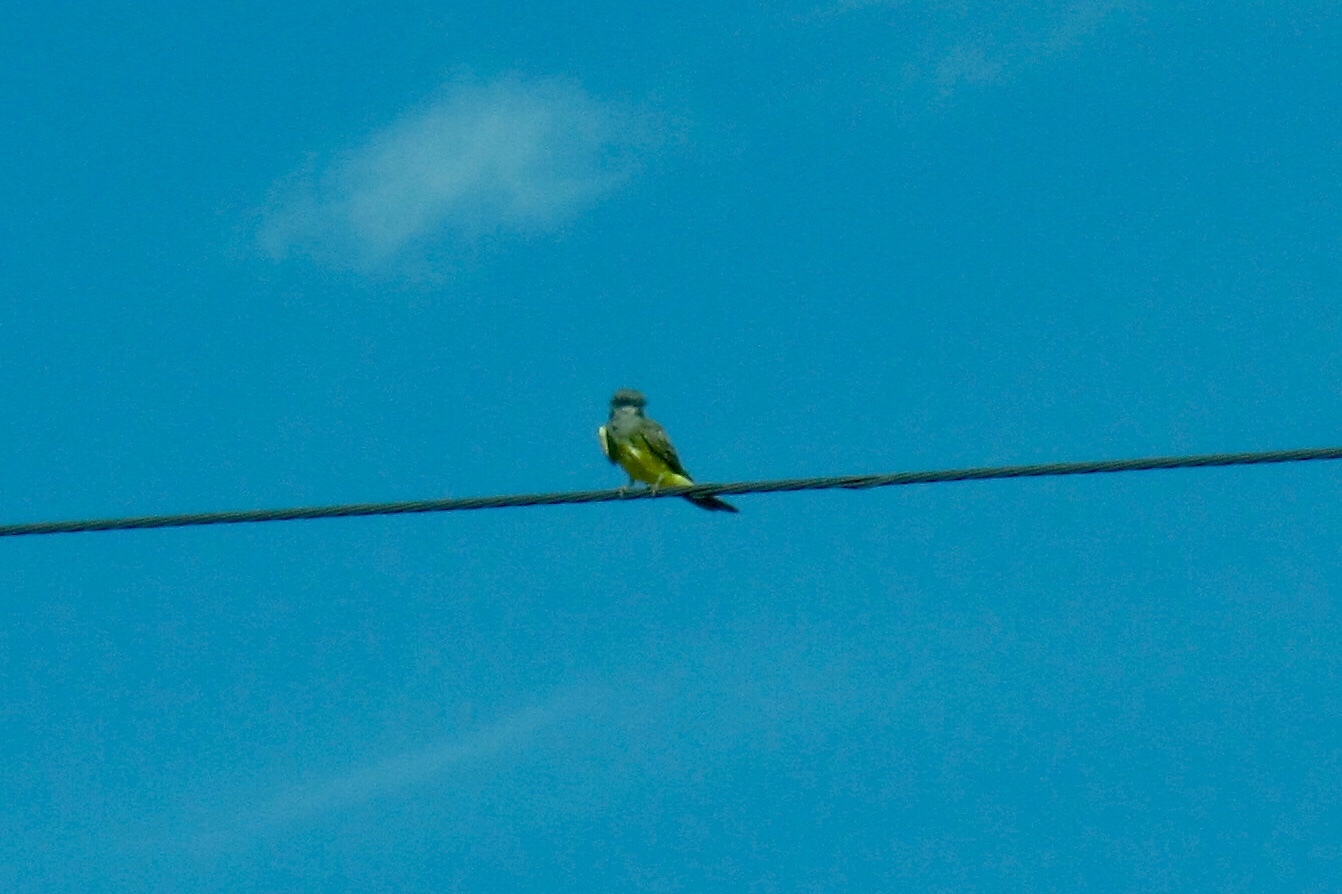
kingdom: Animalia
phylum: Chordata
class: Aves
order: Passeriformes
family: Tyrannidae
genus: Tyrannus
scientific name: Tyrannus vociferans
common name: Cassin's kingbird
